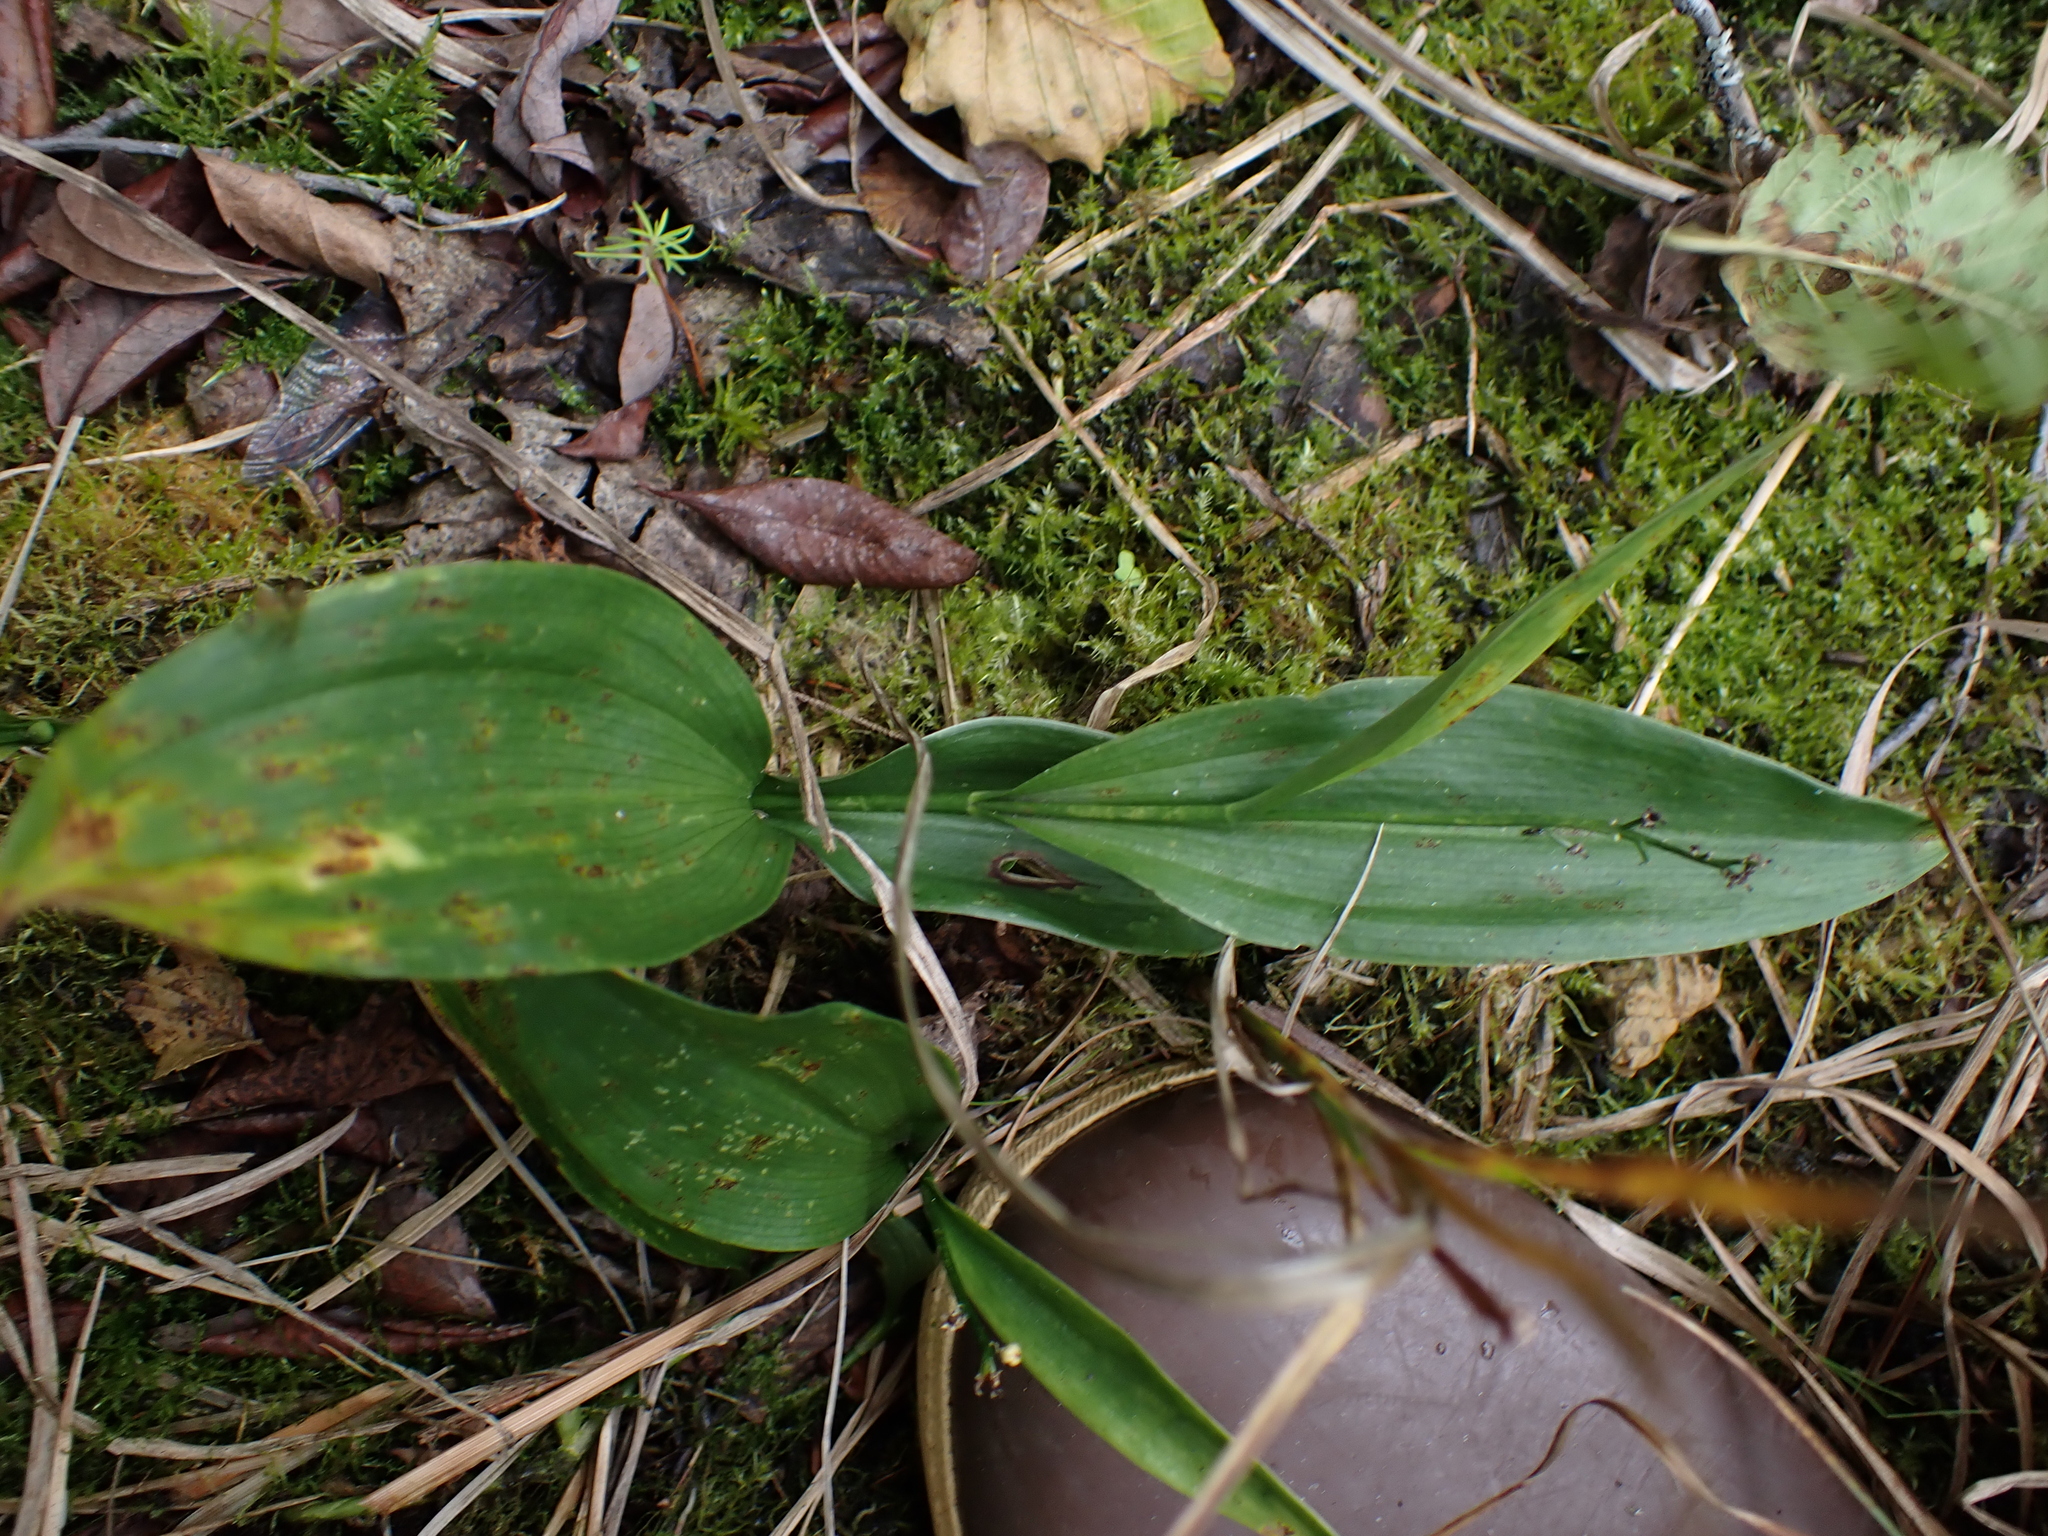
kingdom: Plantae
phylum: Tracheophyta
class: Liliopsida
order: Asparagales
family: Asparagaceae
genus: Maianthemum
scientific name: Maianthemum trifolium
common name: Swamp false solomon's seal
